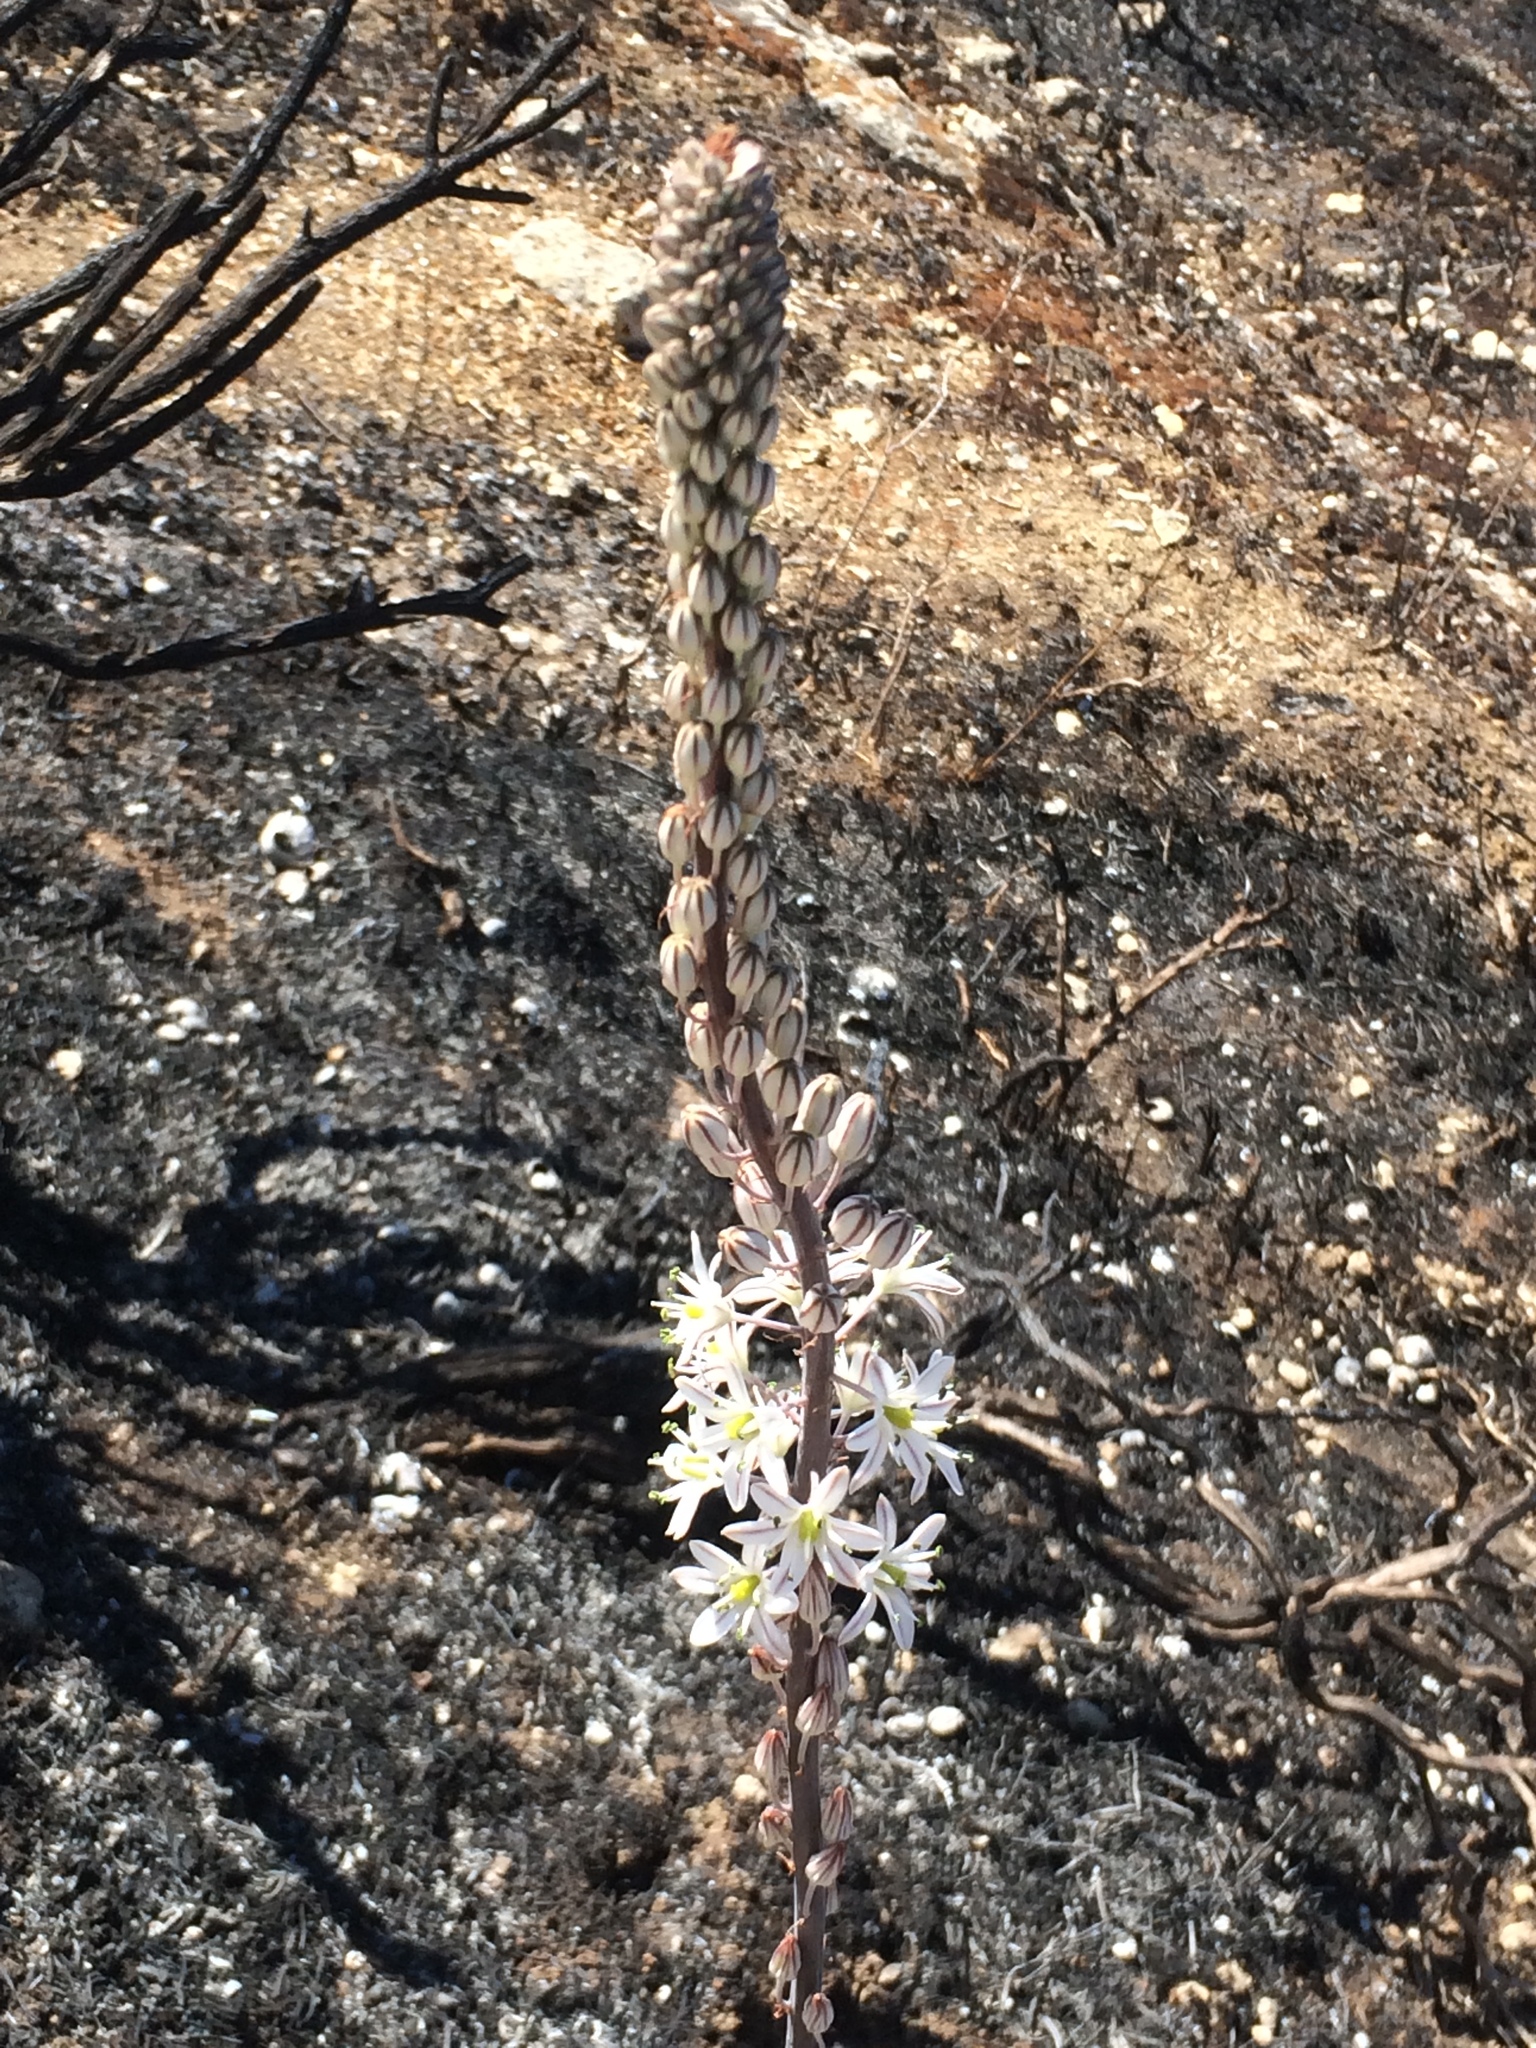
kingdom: Plantae
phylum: Tracheophyta
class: Liliopsida
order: Asparagales
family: Asparagaceae
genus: Drimia
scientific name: Drimia maritima
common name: Maritime squill
